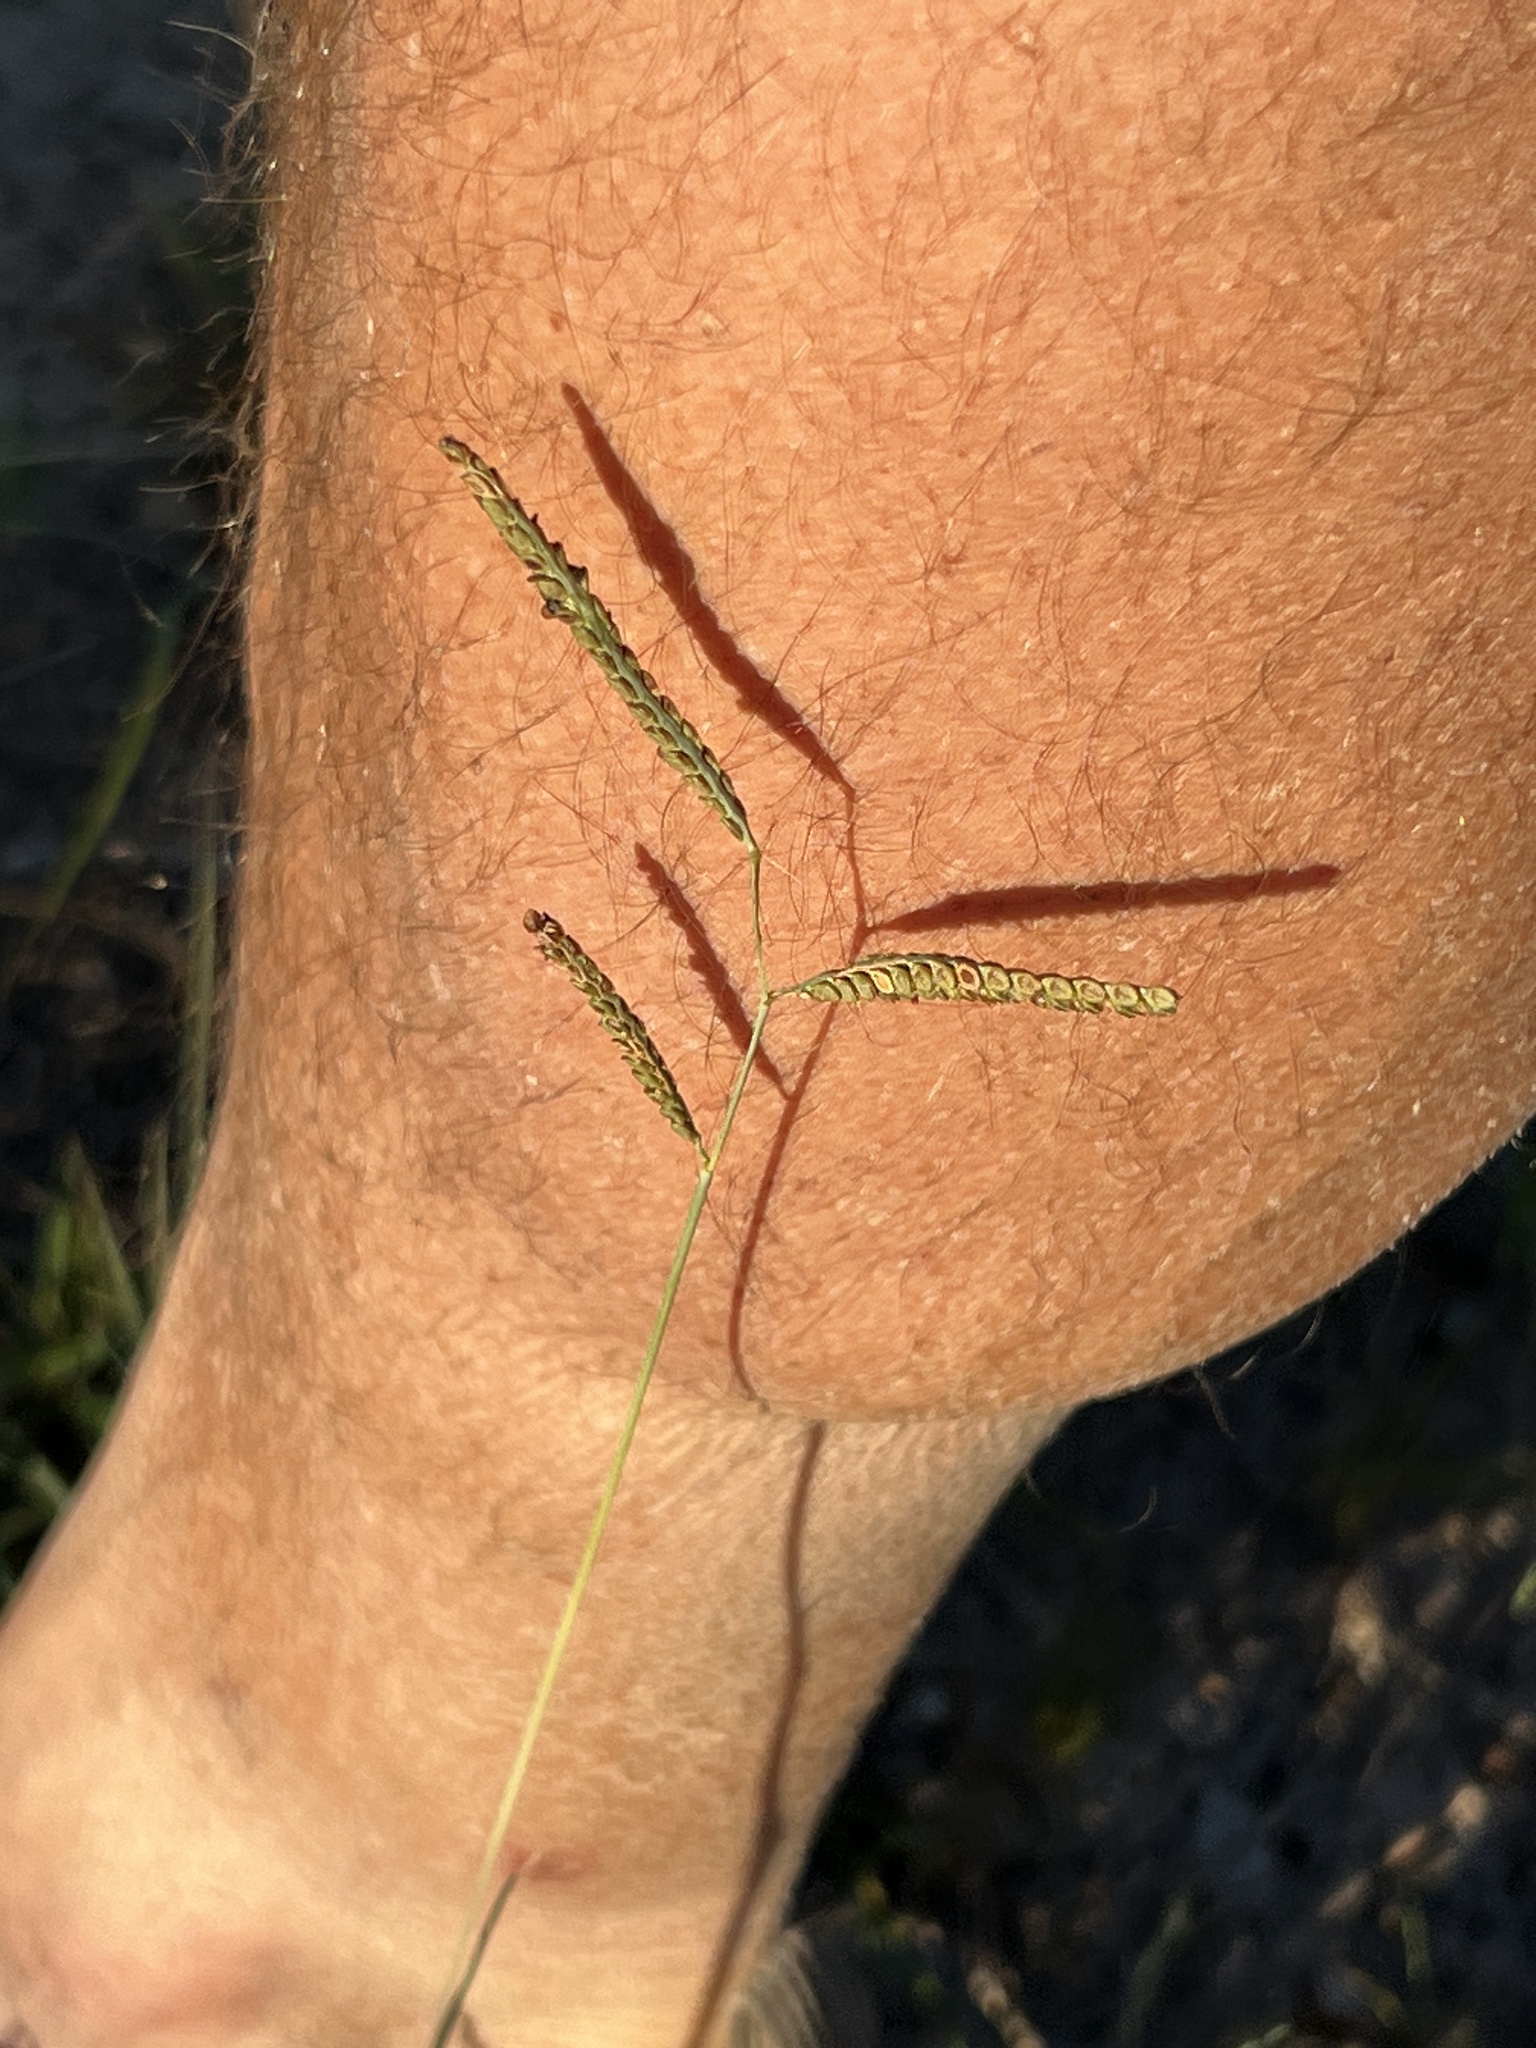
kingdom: Plantae
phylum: Tracheophyta
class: Liliopsida
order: Poales
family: Poaceae
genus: Paspalum
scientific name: Paspalum plicatulum
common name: Top paspalum
